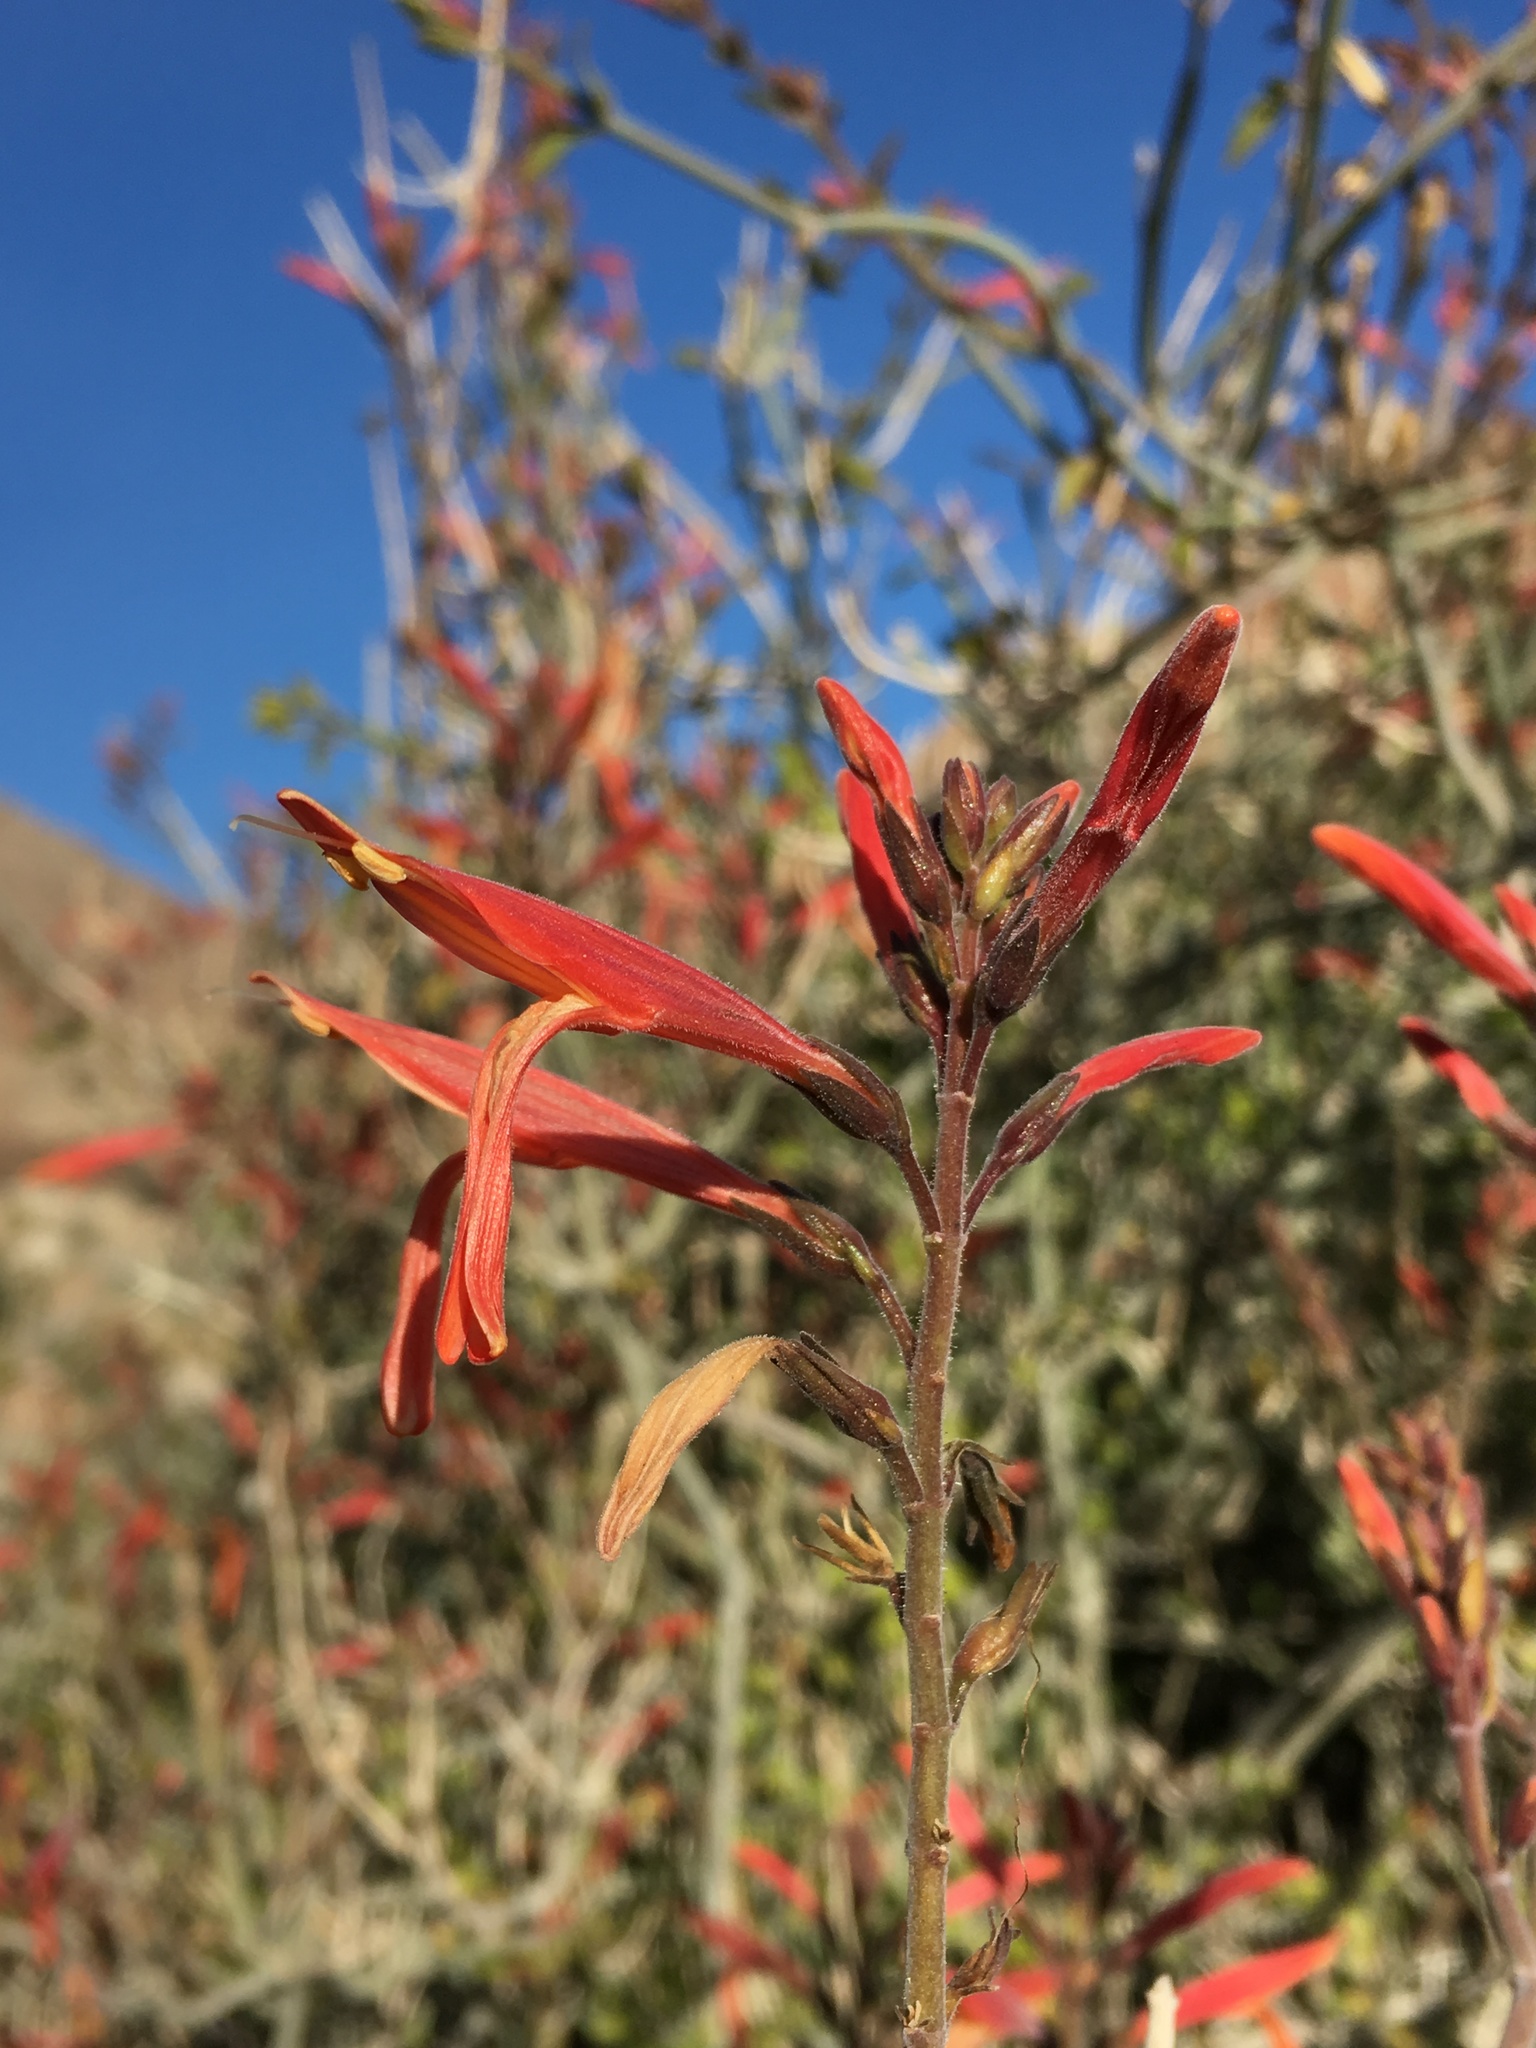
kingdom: Plantae
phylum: Tracheophyta
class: Magnoliopsida
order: Lamiales
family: Acanthaceae
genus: Justicia
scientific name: Justicia californica
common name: Chuparosa-honeysuckle
